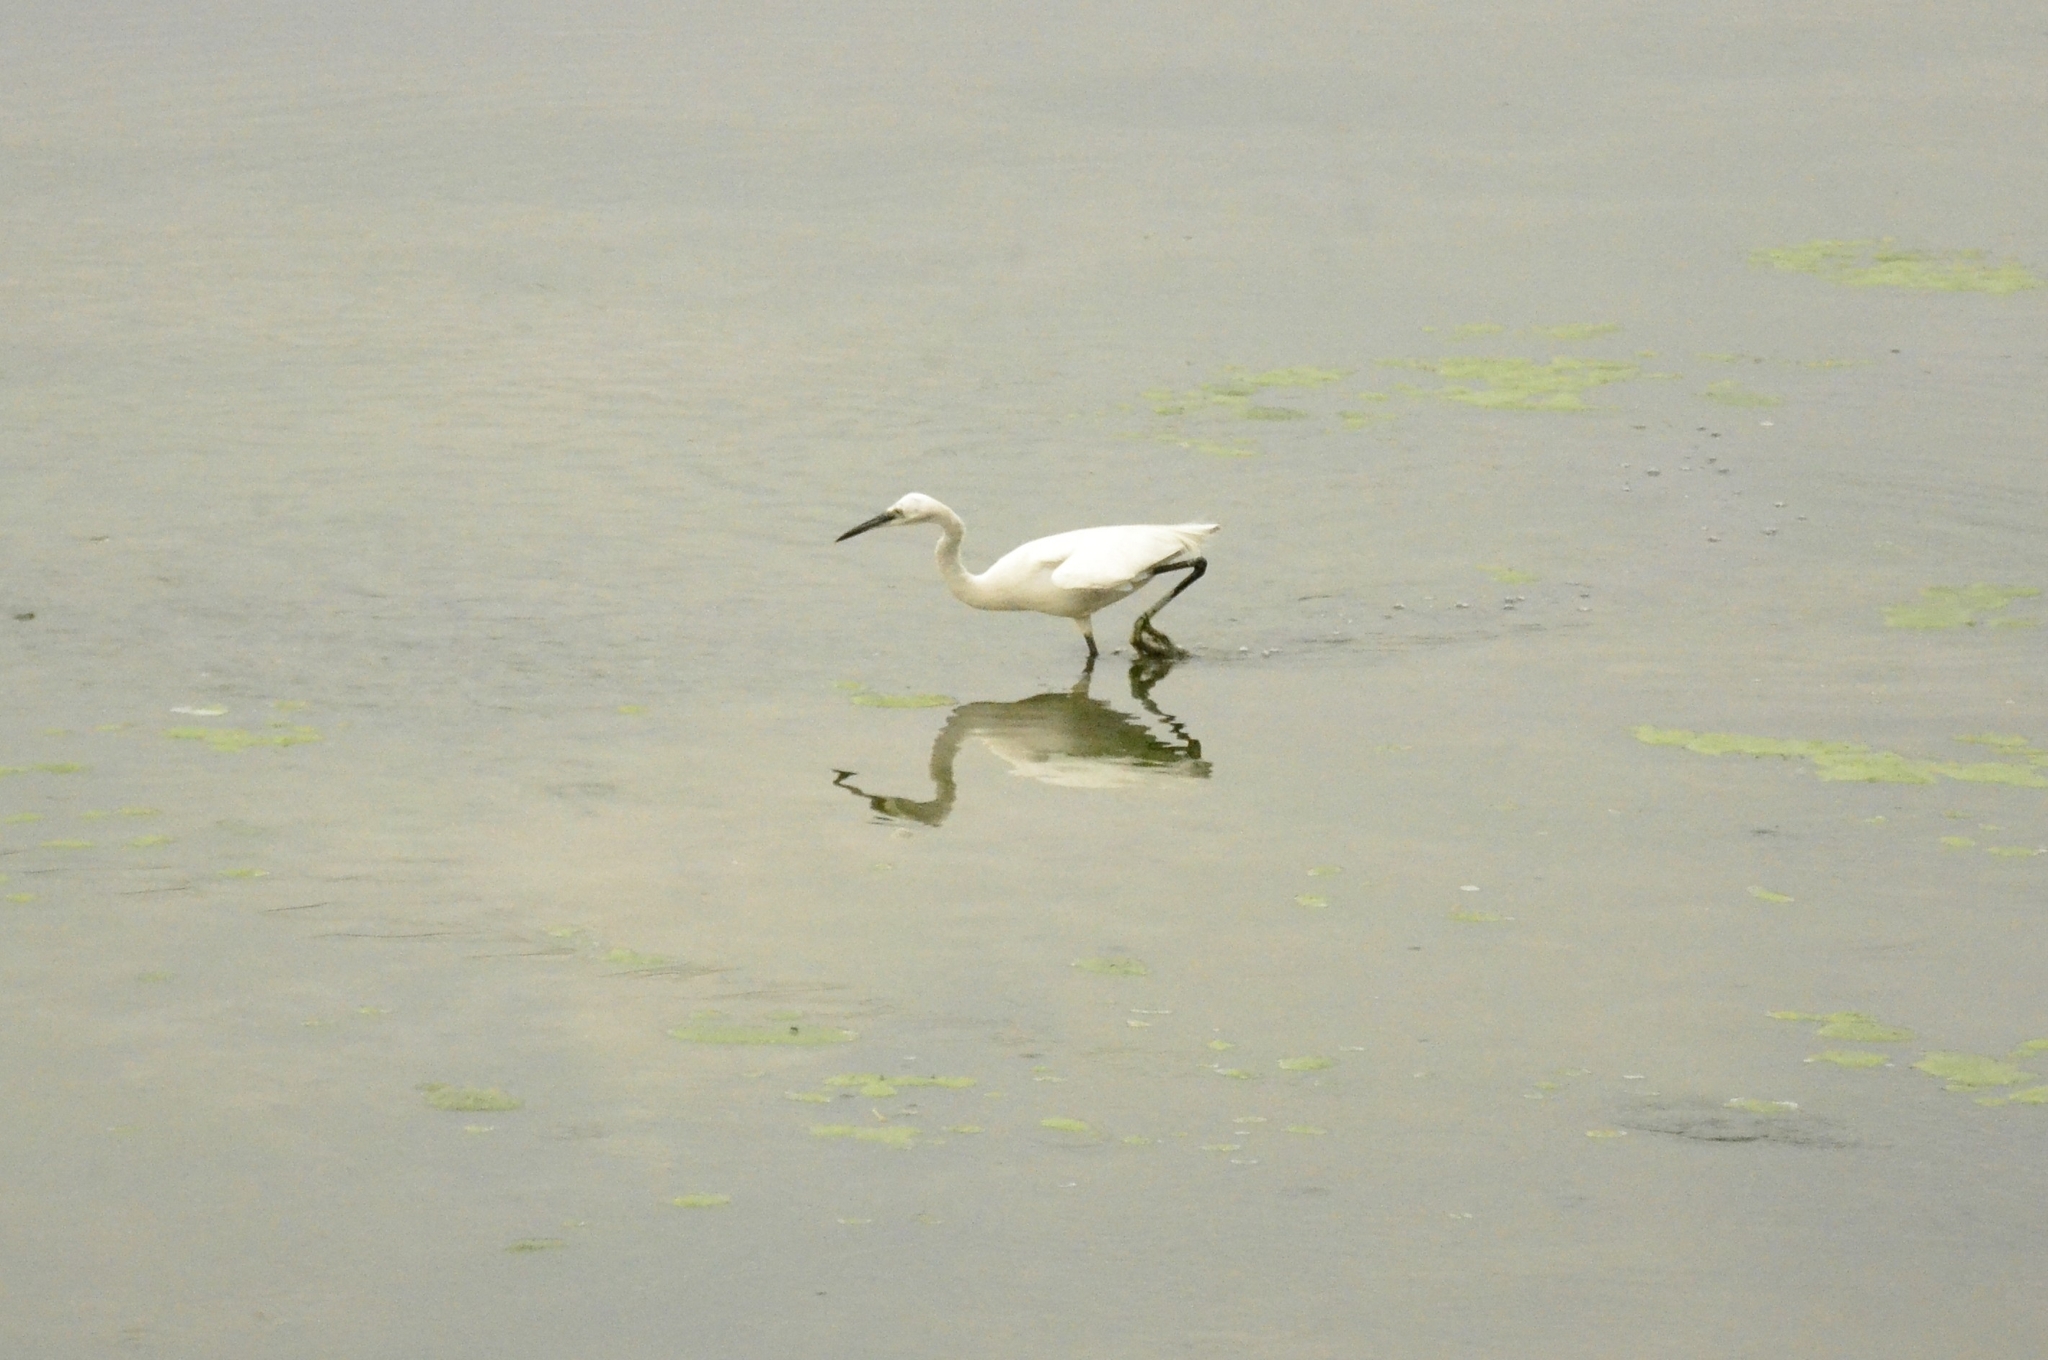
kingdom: Animalia
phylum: Chordata
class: Aves
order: Pelecaniformes
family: Ardeidae
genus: Egretta
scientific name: Egretta garzetta
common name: Little egret
